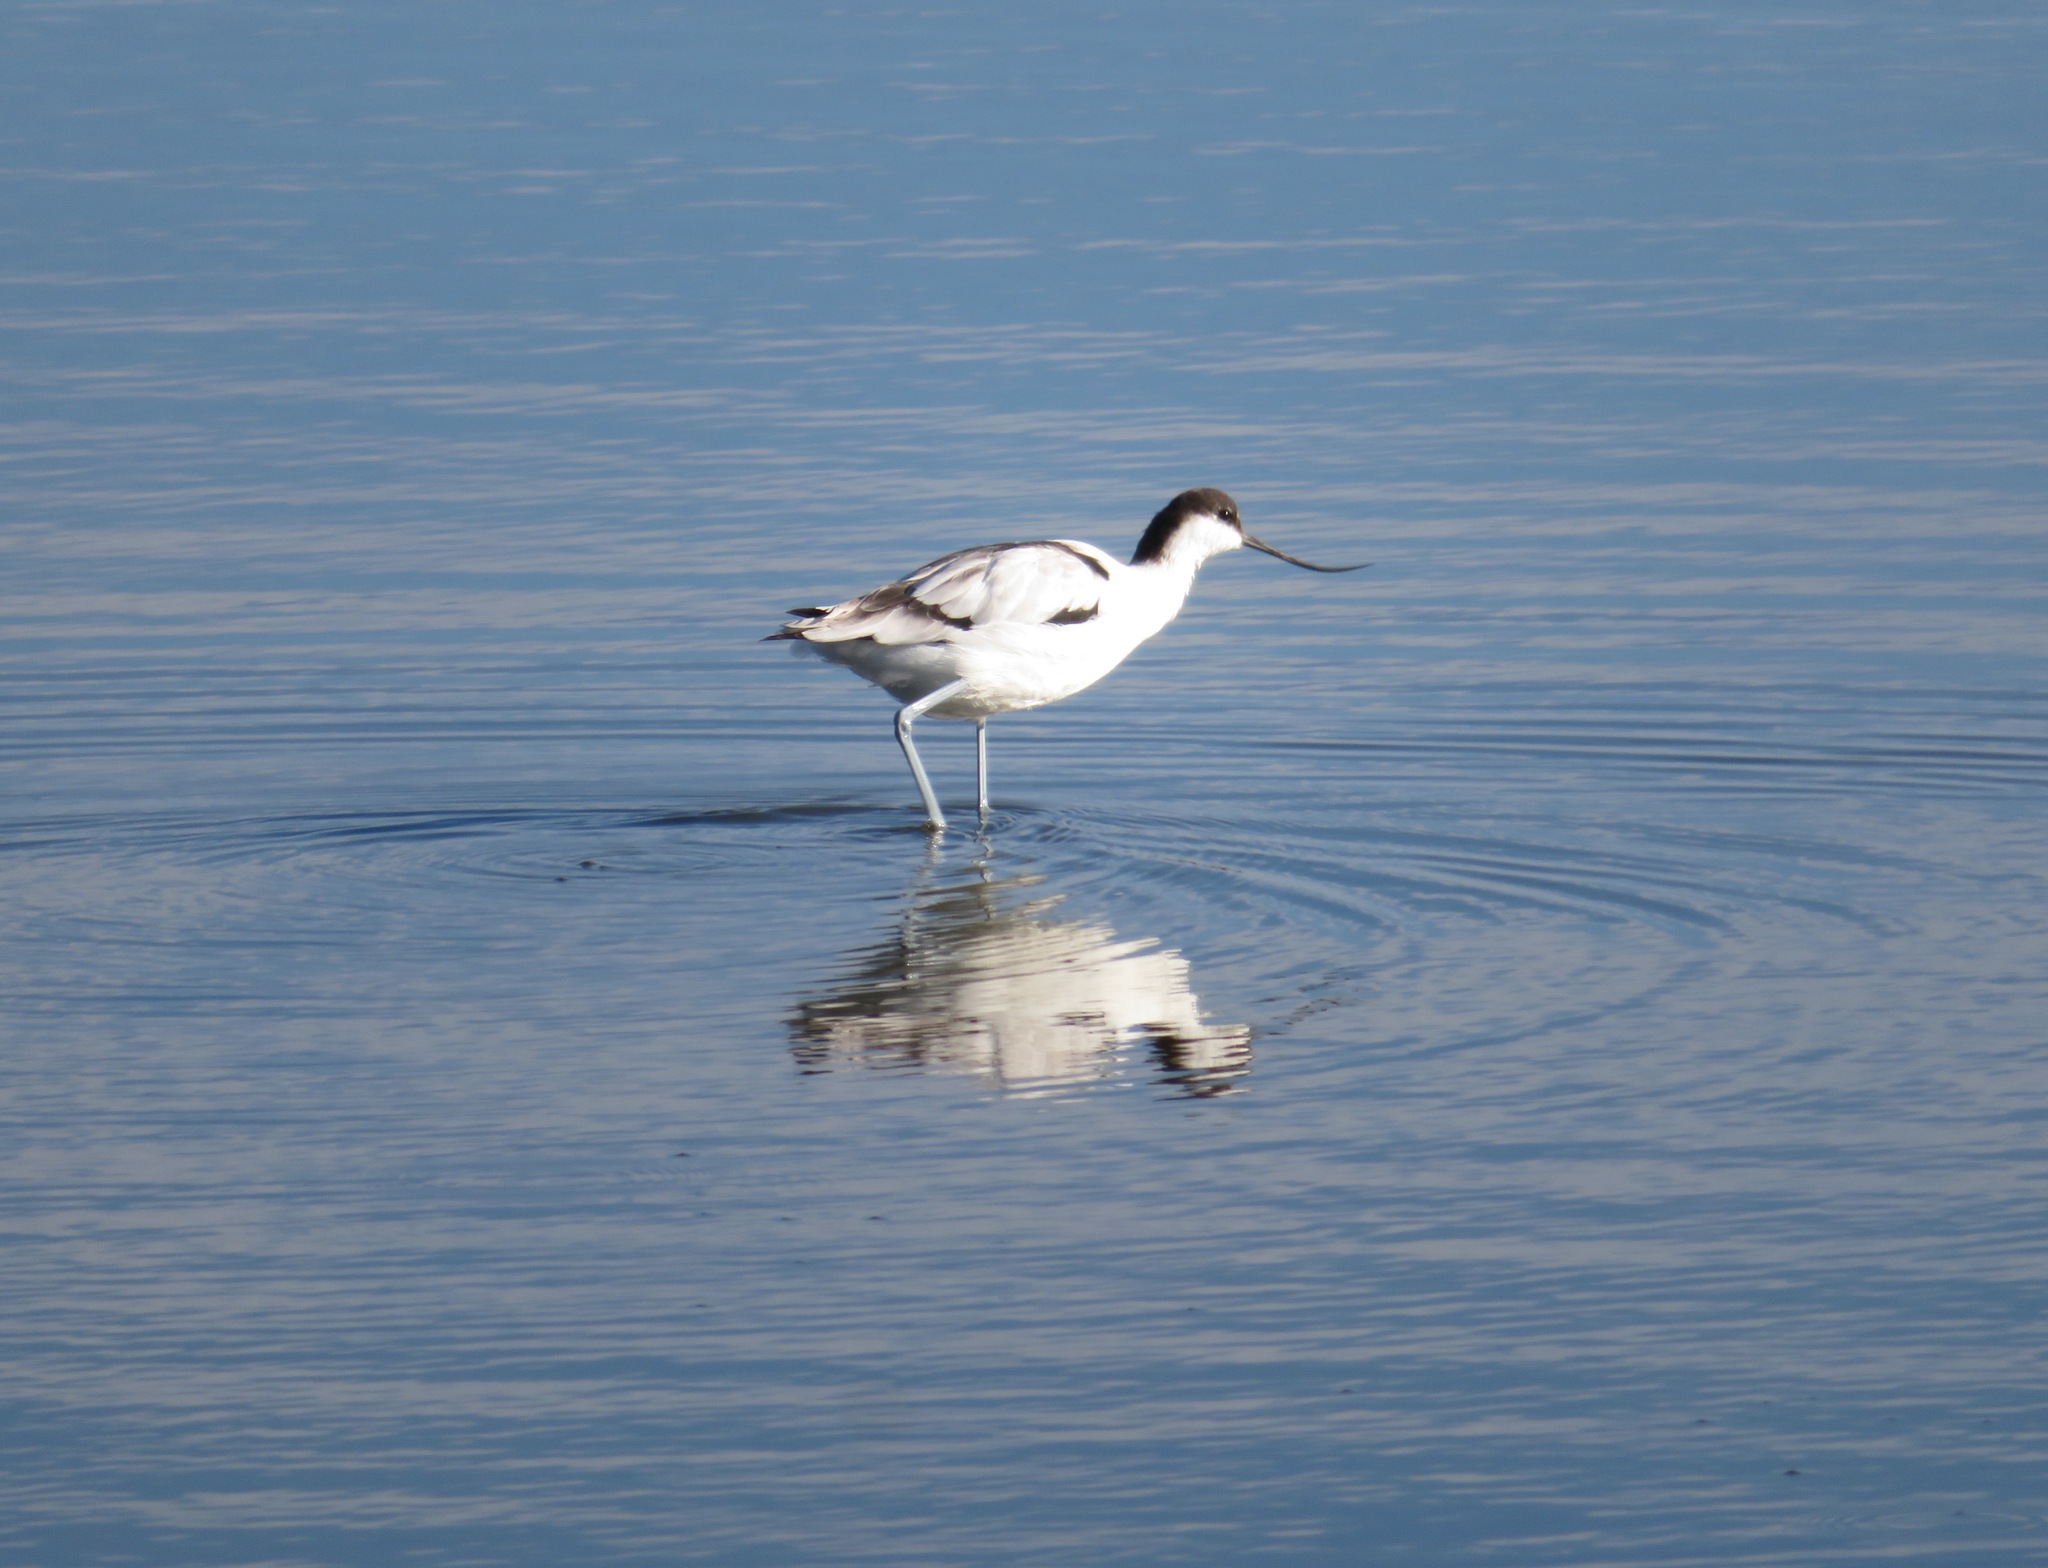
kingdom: Animalia
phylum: Chordata
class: Aves
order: Charadriiformes
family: Recurvirostridae
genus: Recurvirostra
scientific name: Recurvirostra avosetta
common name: Pied avocet
